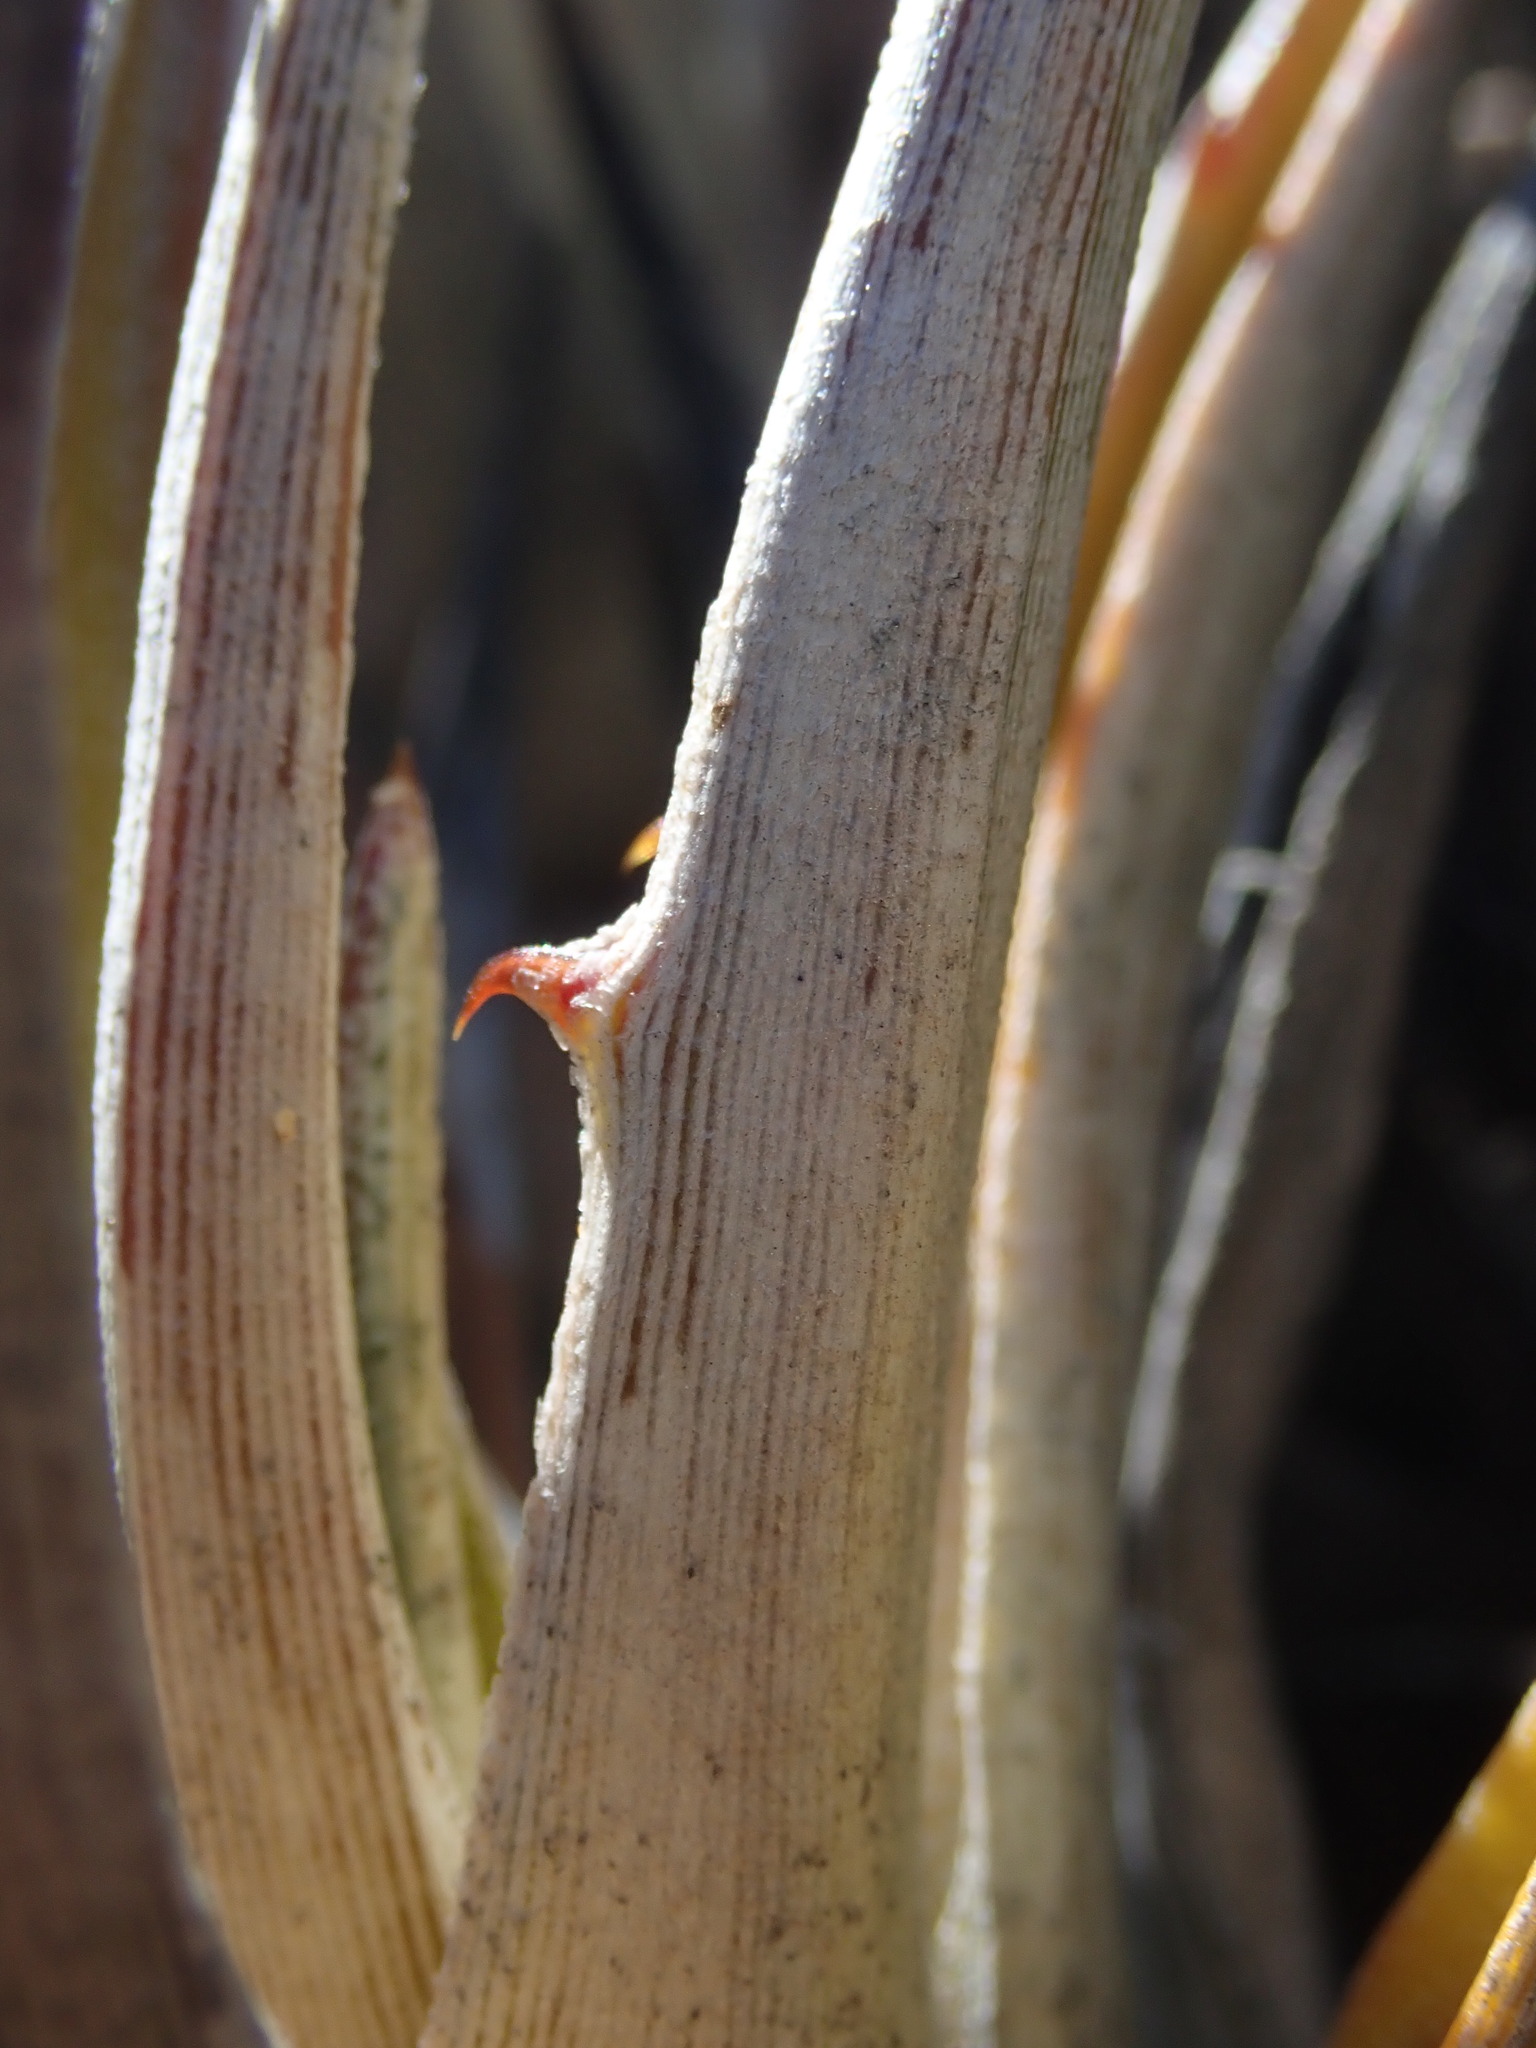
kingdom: Plantae
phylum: Tracheophyta
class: Liliopsida
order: Poales
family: Bromeliaceae
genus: Deuterocohnia
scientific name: Deuterocohnia strobilifera
